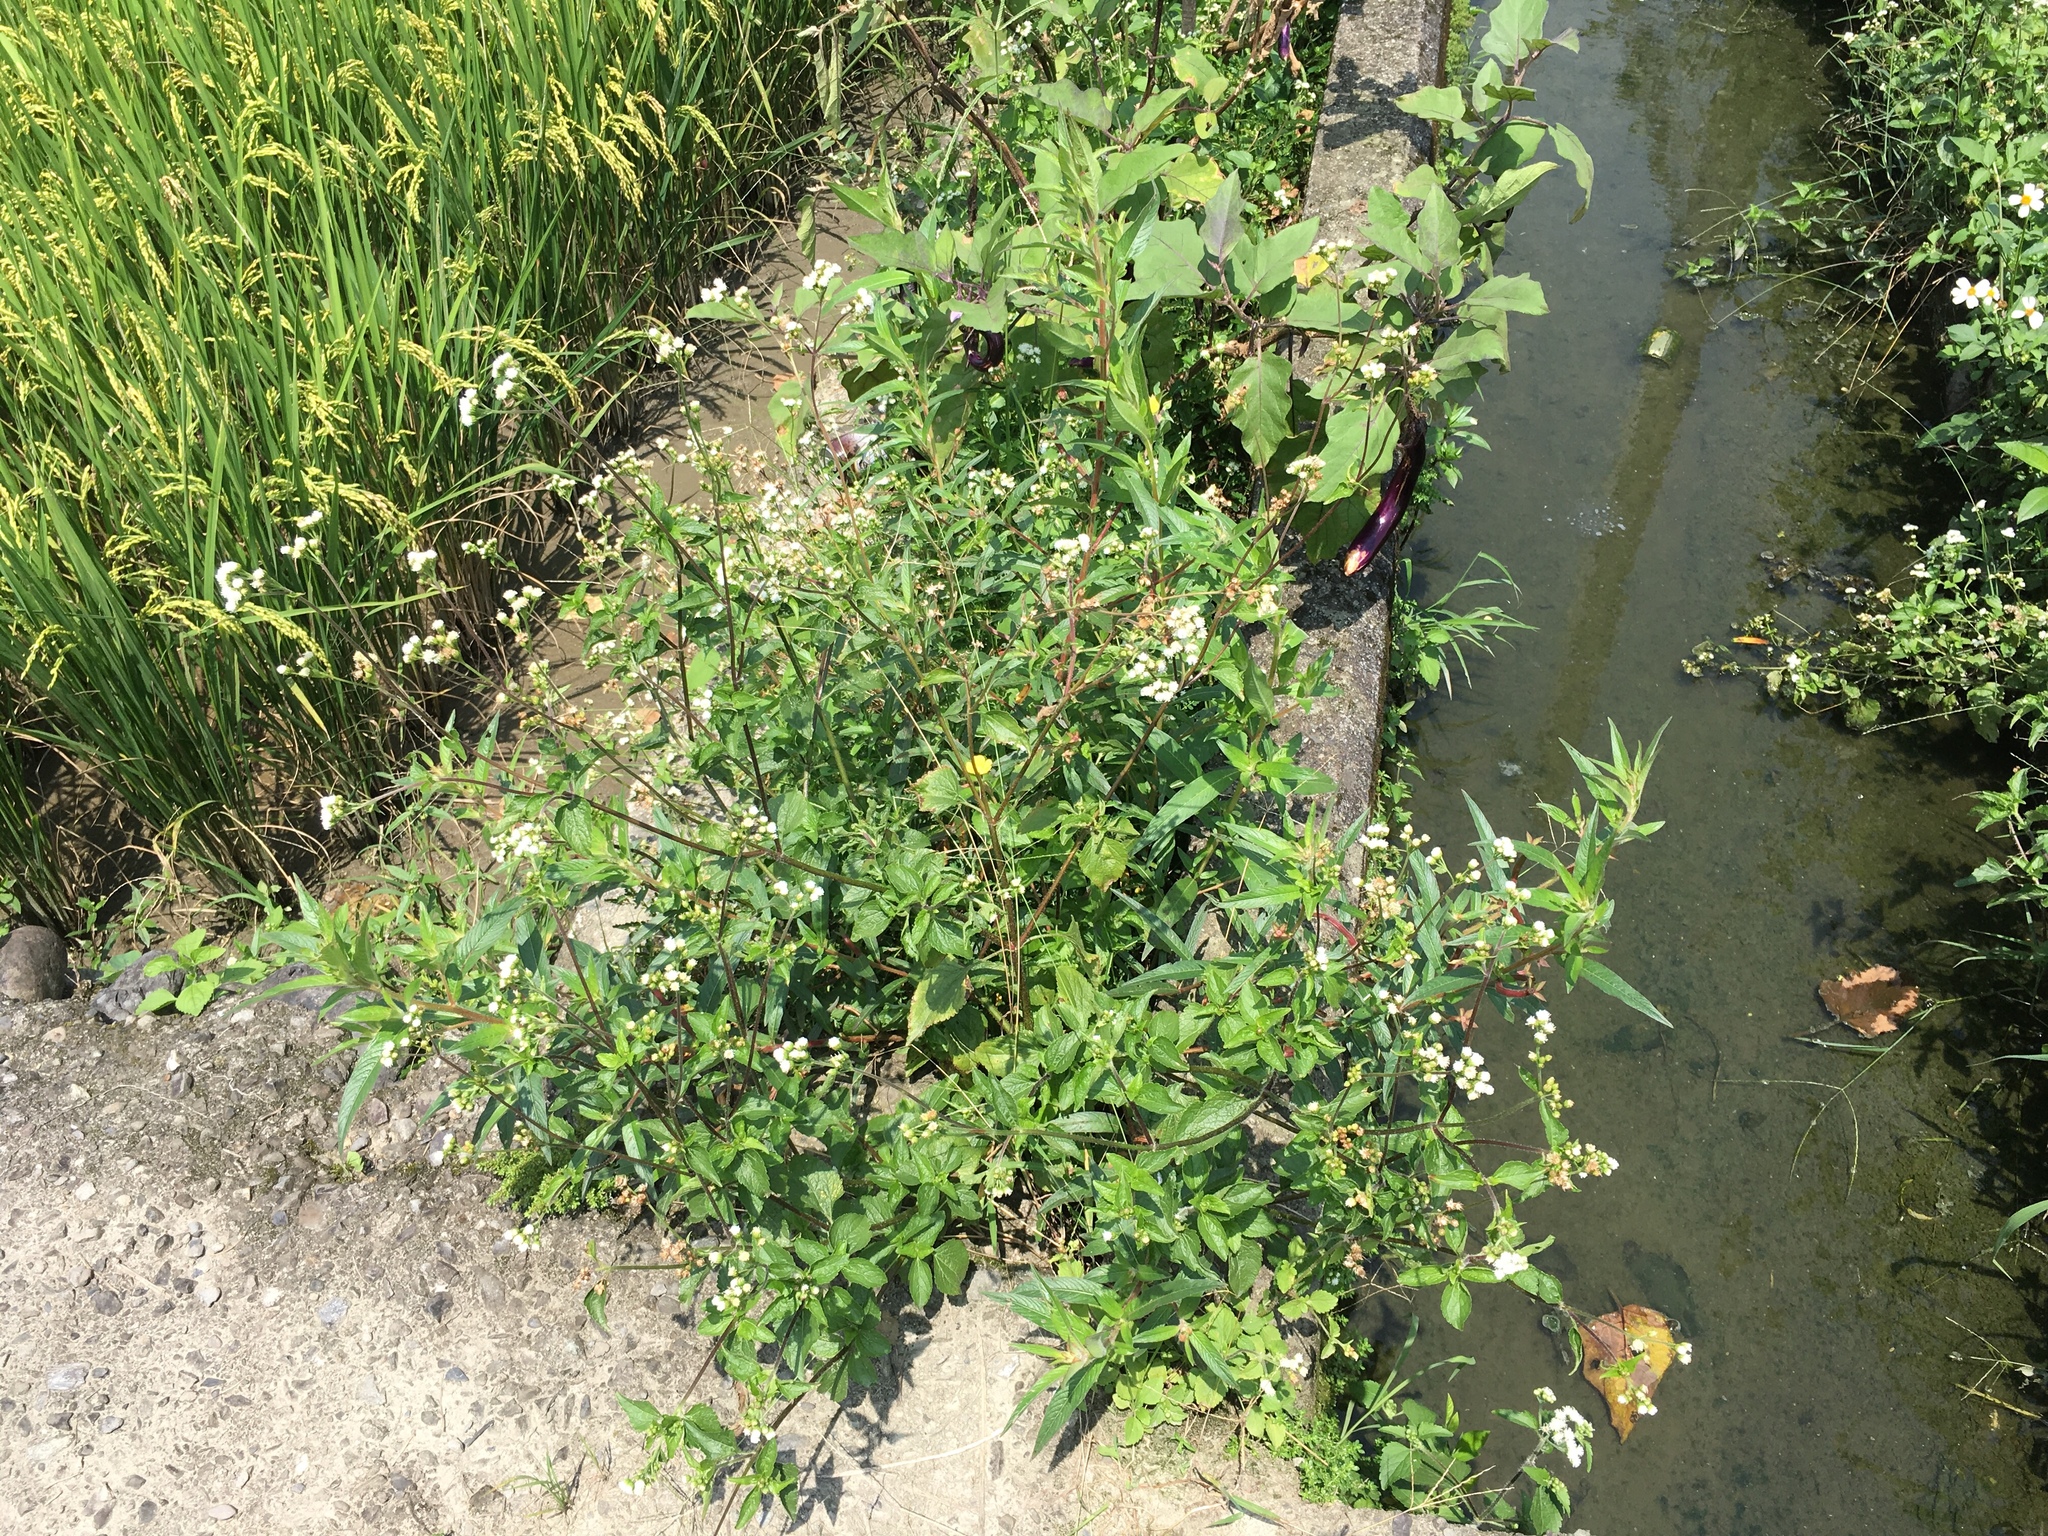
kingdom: Plantae
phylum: Tracheophyta
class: Magnoliopsida
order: Asterales
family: Asteraceae
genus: Ageratum
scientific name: Ageratum conyzoides
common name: Tropical whiteweed
